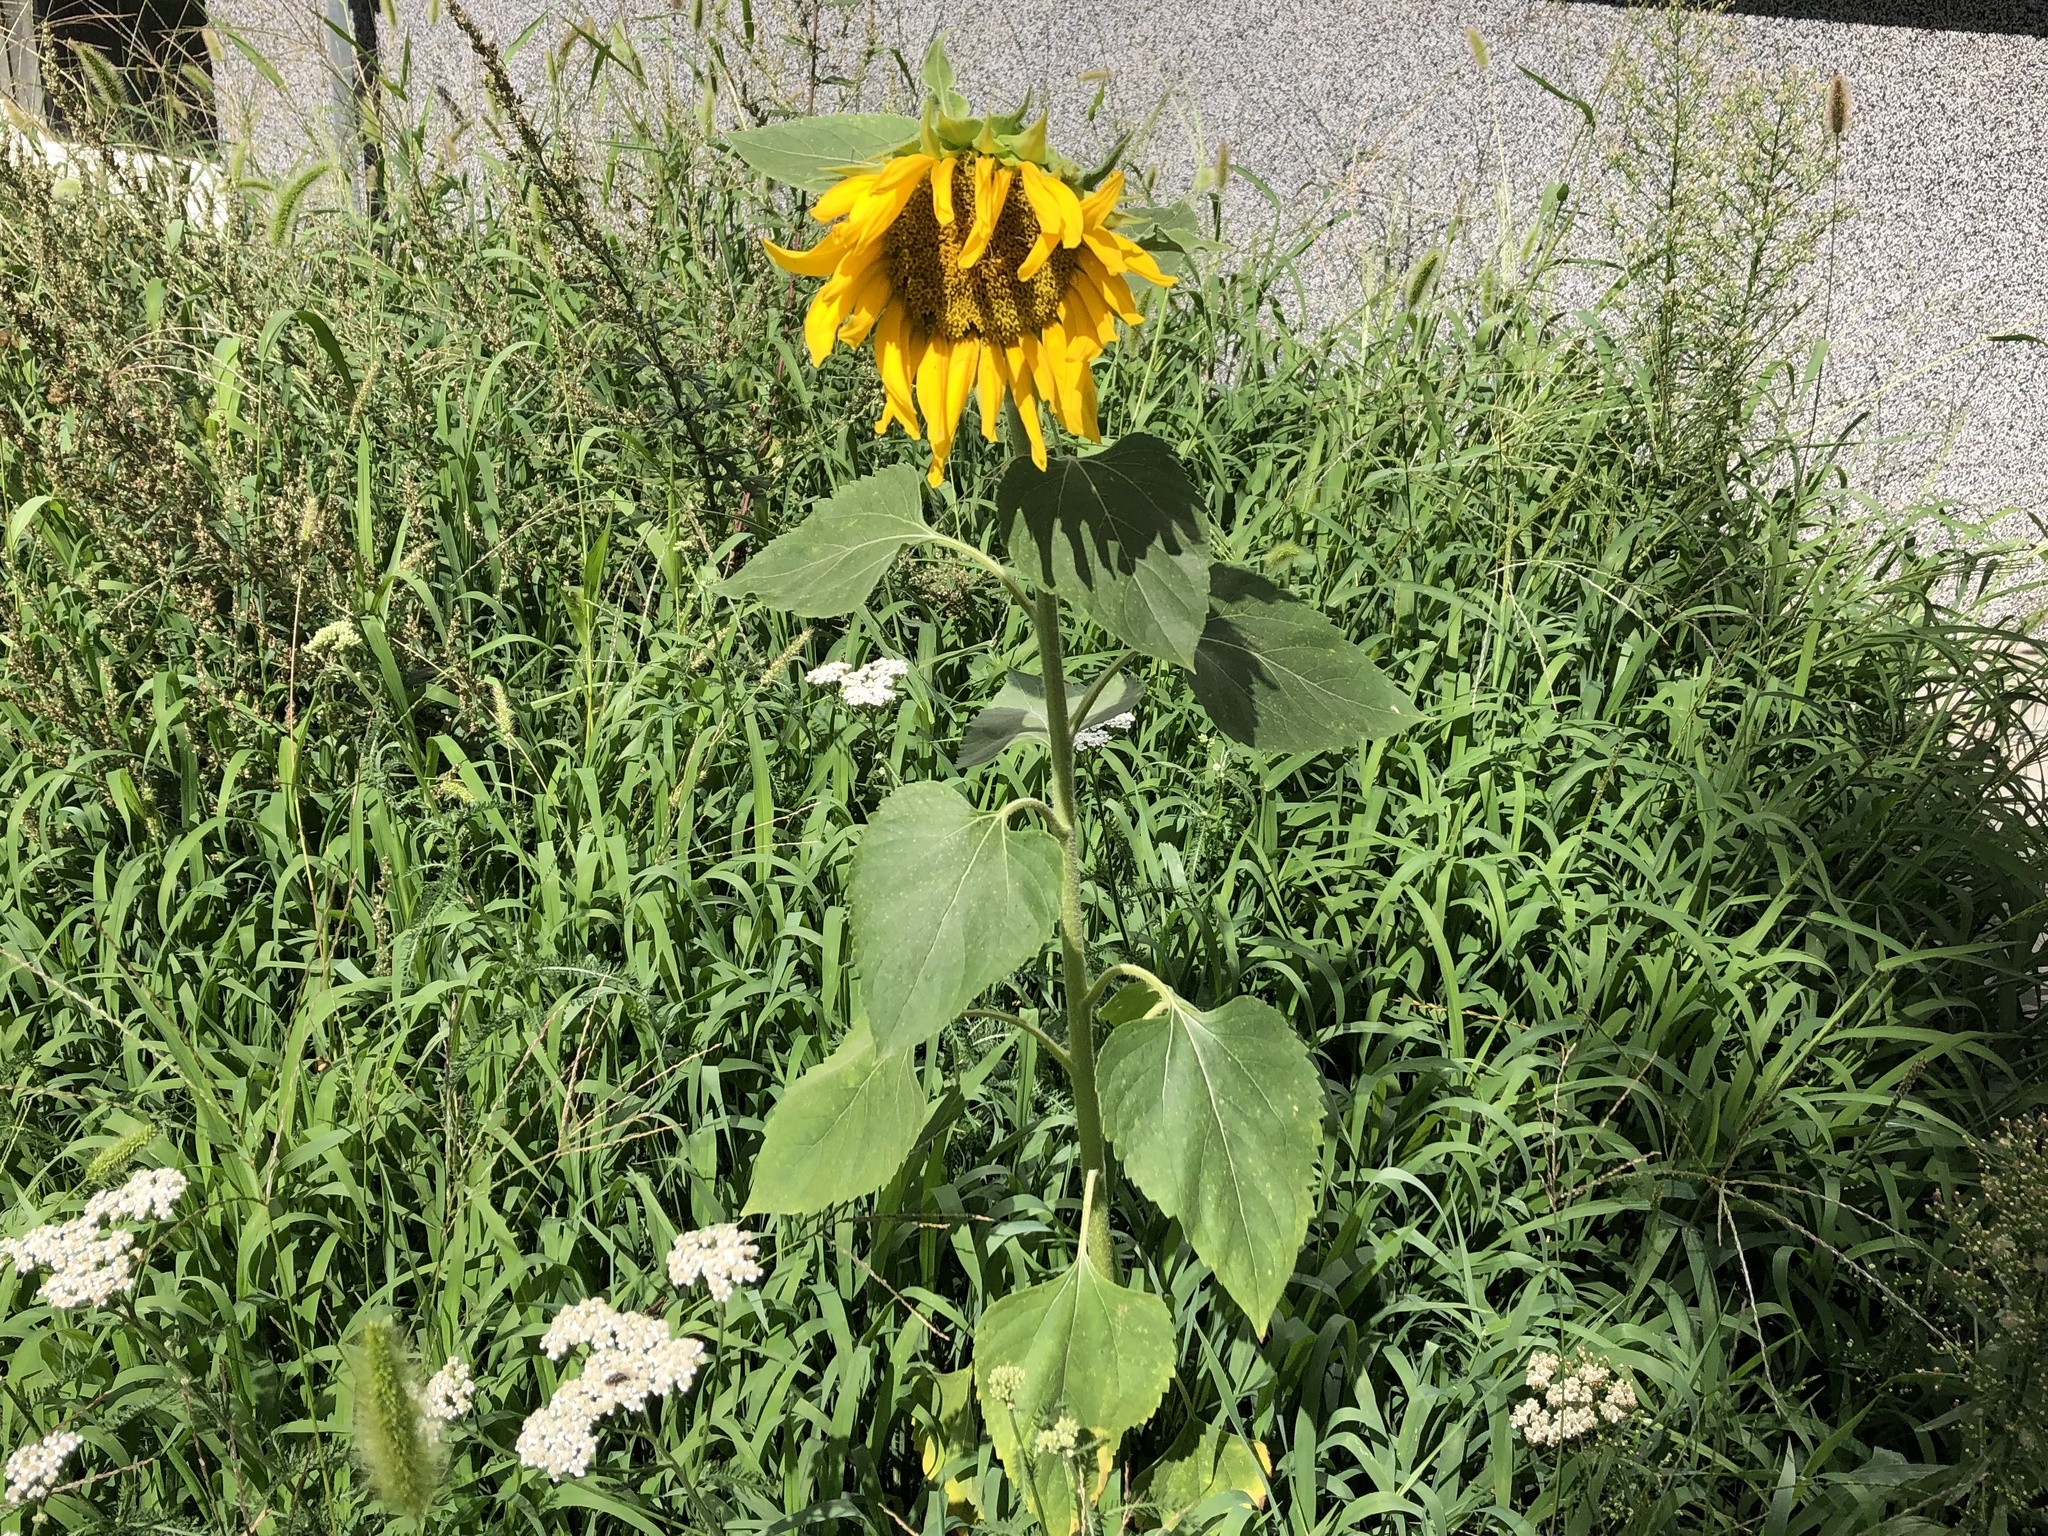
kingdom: Plantae
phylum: Tracheophyta
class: Magnoliopsida
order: Asterales
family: Asteraceae
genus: Helianthus
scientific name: Helianthus annuus
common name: Sunflower
